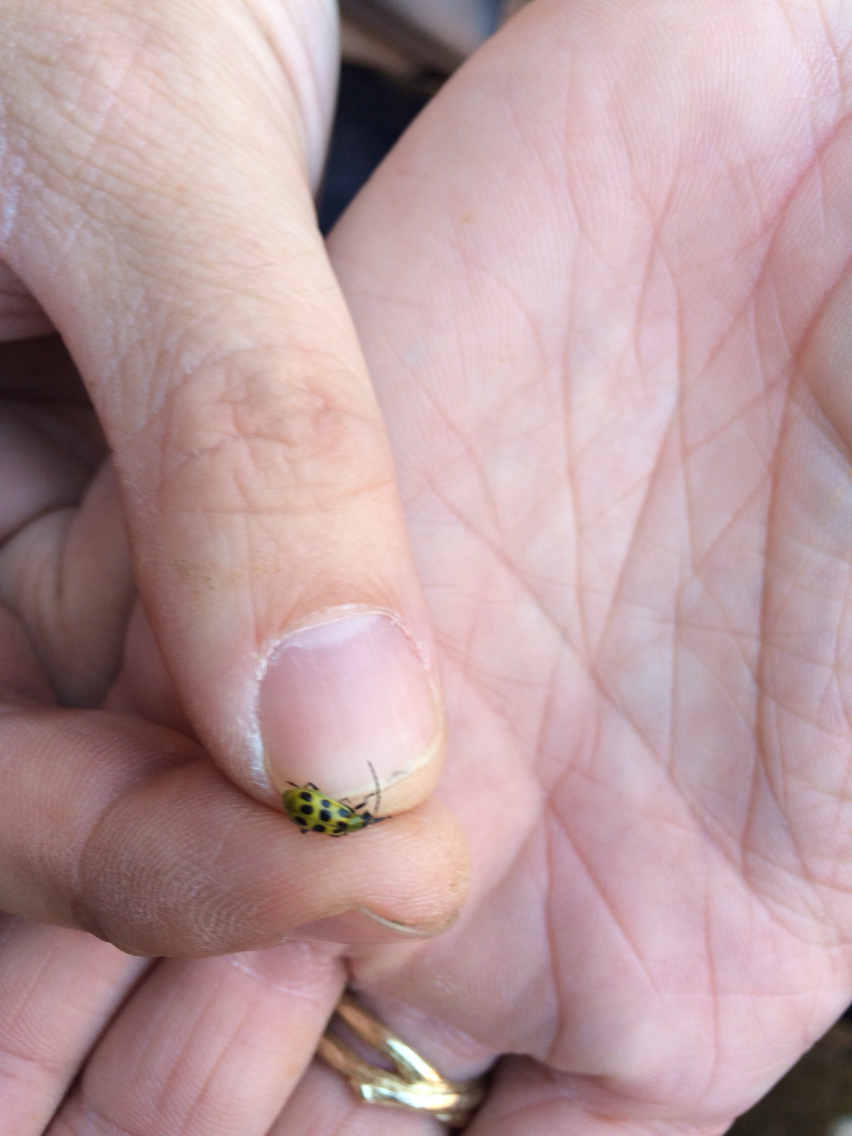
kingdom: Animalia
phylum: Arthropoda
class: Insecta
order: Coleoptera
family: Chrysomelidae
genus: Diabrotica
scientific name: Diabrotica undecimpunctata
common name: Spotted cucumber beetle
